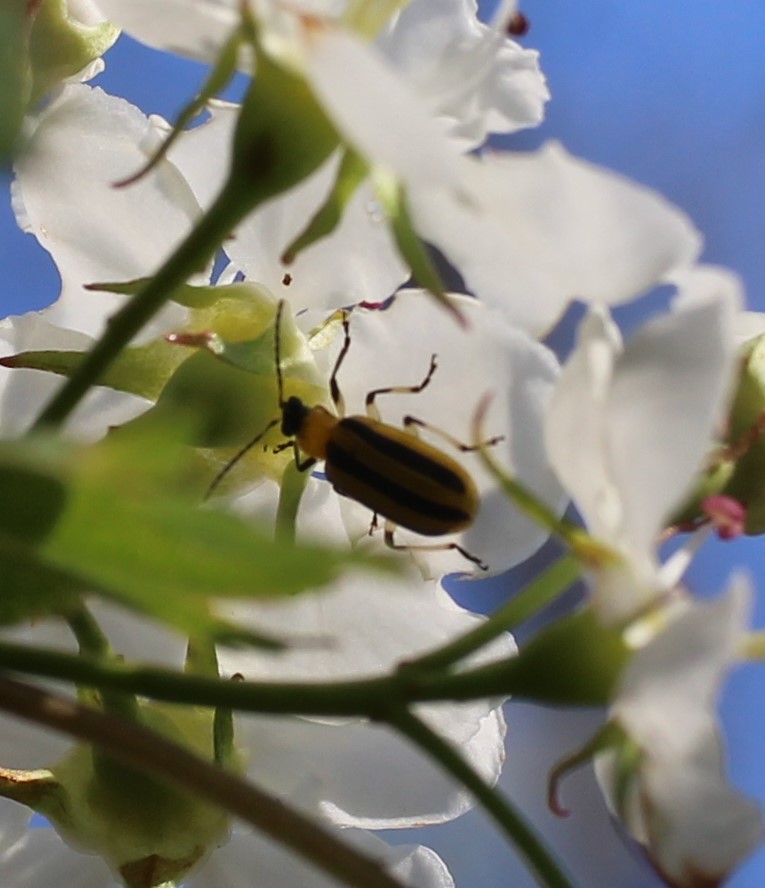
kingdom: Animalia
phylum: Arthropoda
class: Insecta
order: Coleoptera
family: Chrysomelidae
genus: Acalymma
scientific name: Acalymma vittatum
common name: Striped cucumber beetle
